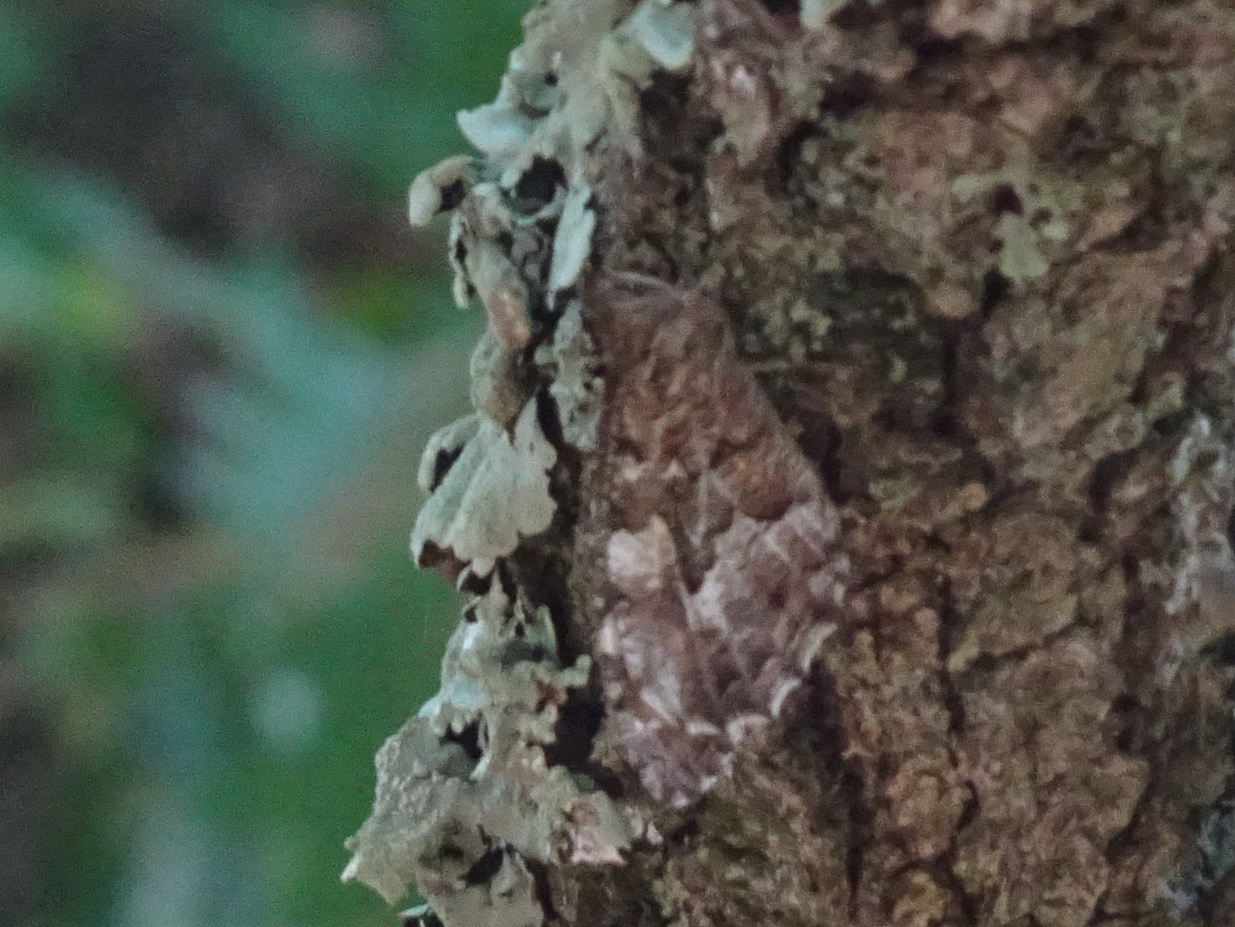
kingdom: Animalia
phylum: Arthropoda
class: Insecta
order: Lepidoptera
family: Nymphalidae
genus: Hipparchia
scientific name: Hipparchia semele
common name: Grayling
